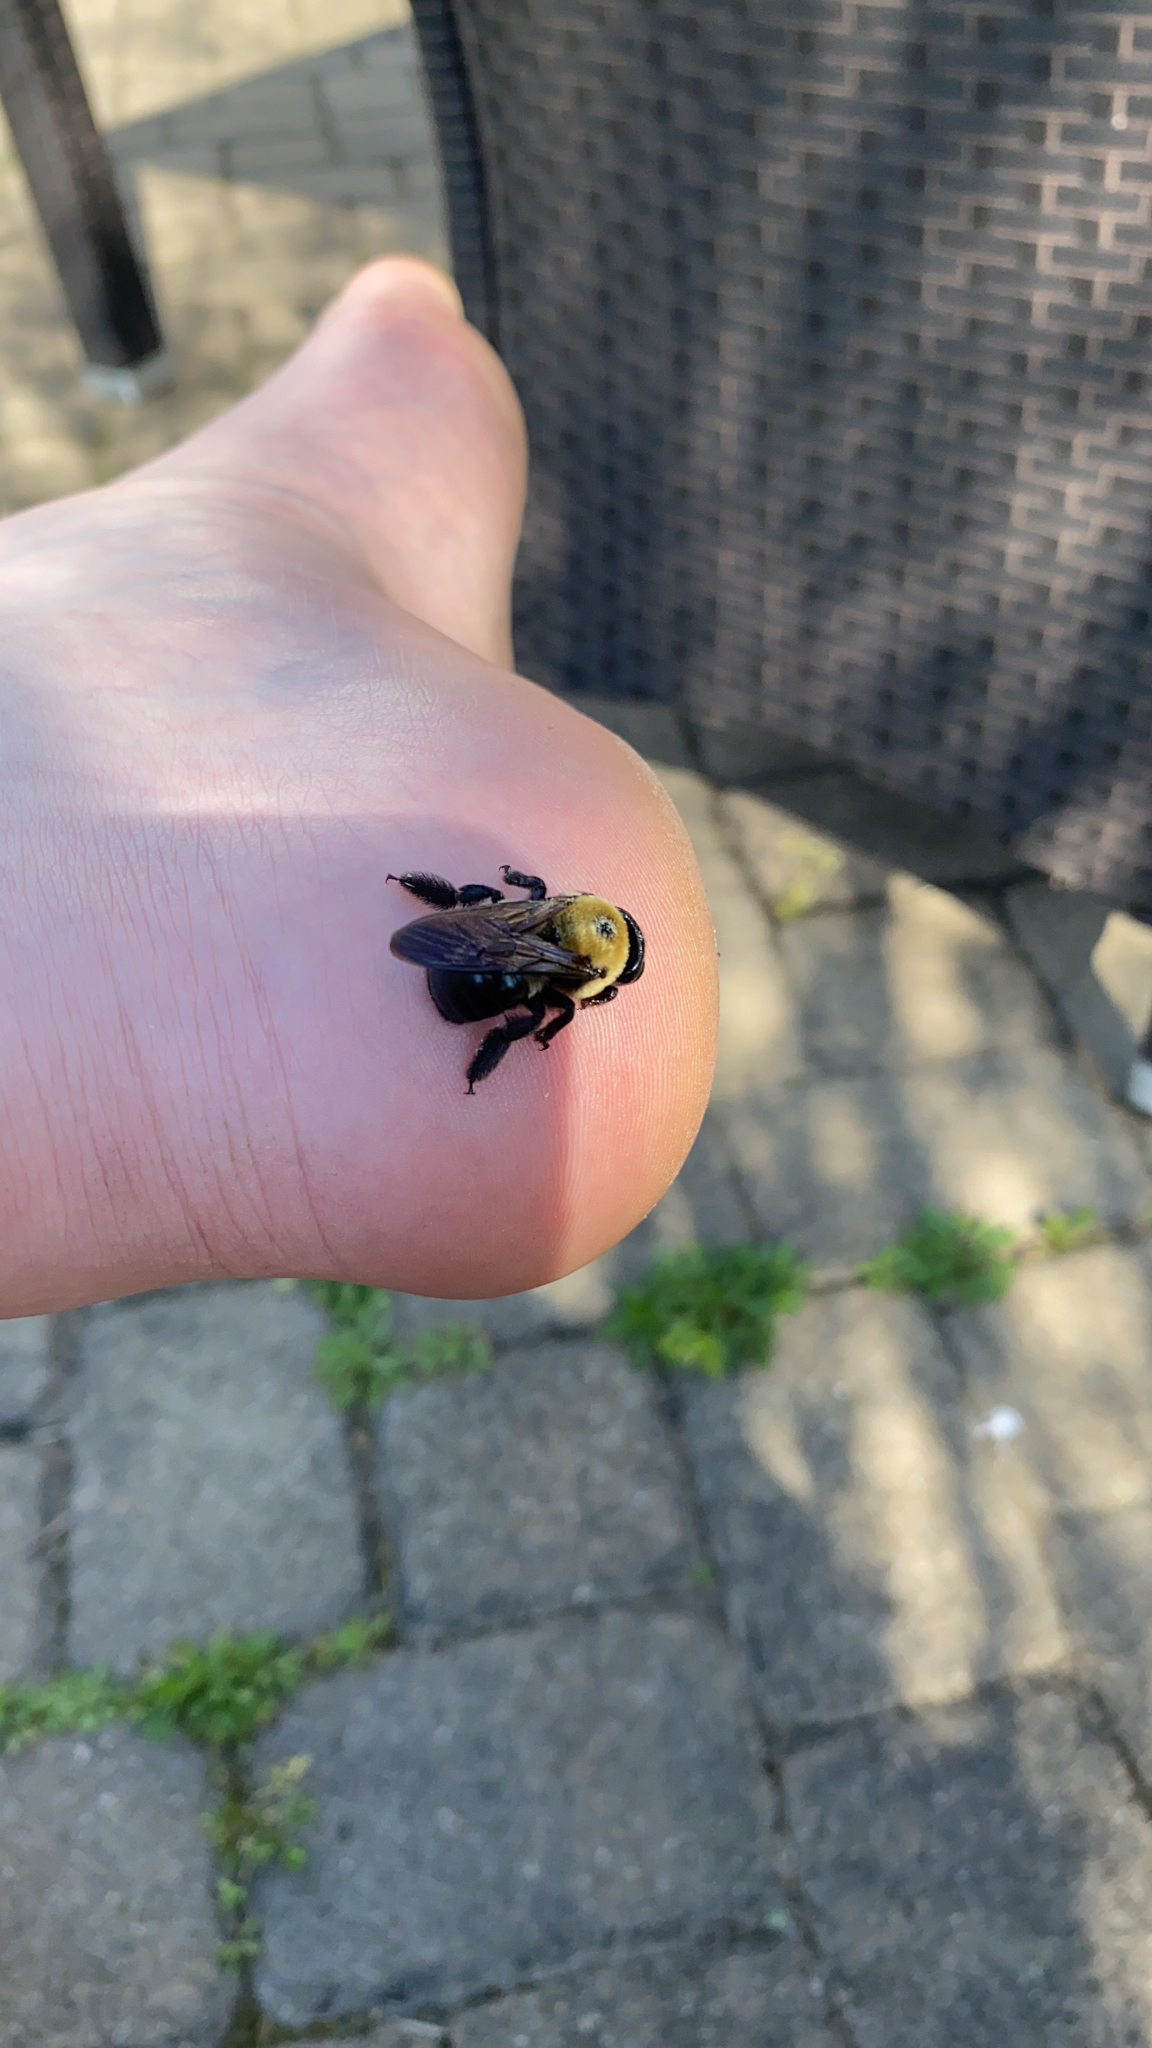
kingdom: Animalia
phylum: Arthropoda
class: Insecta
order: Hymenoptera
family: Apidae
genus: Xylocopa
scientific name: Xylocopa virginica
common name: Carpenter bee
